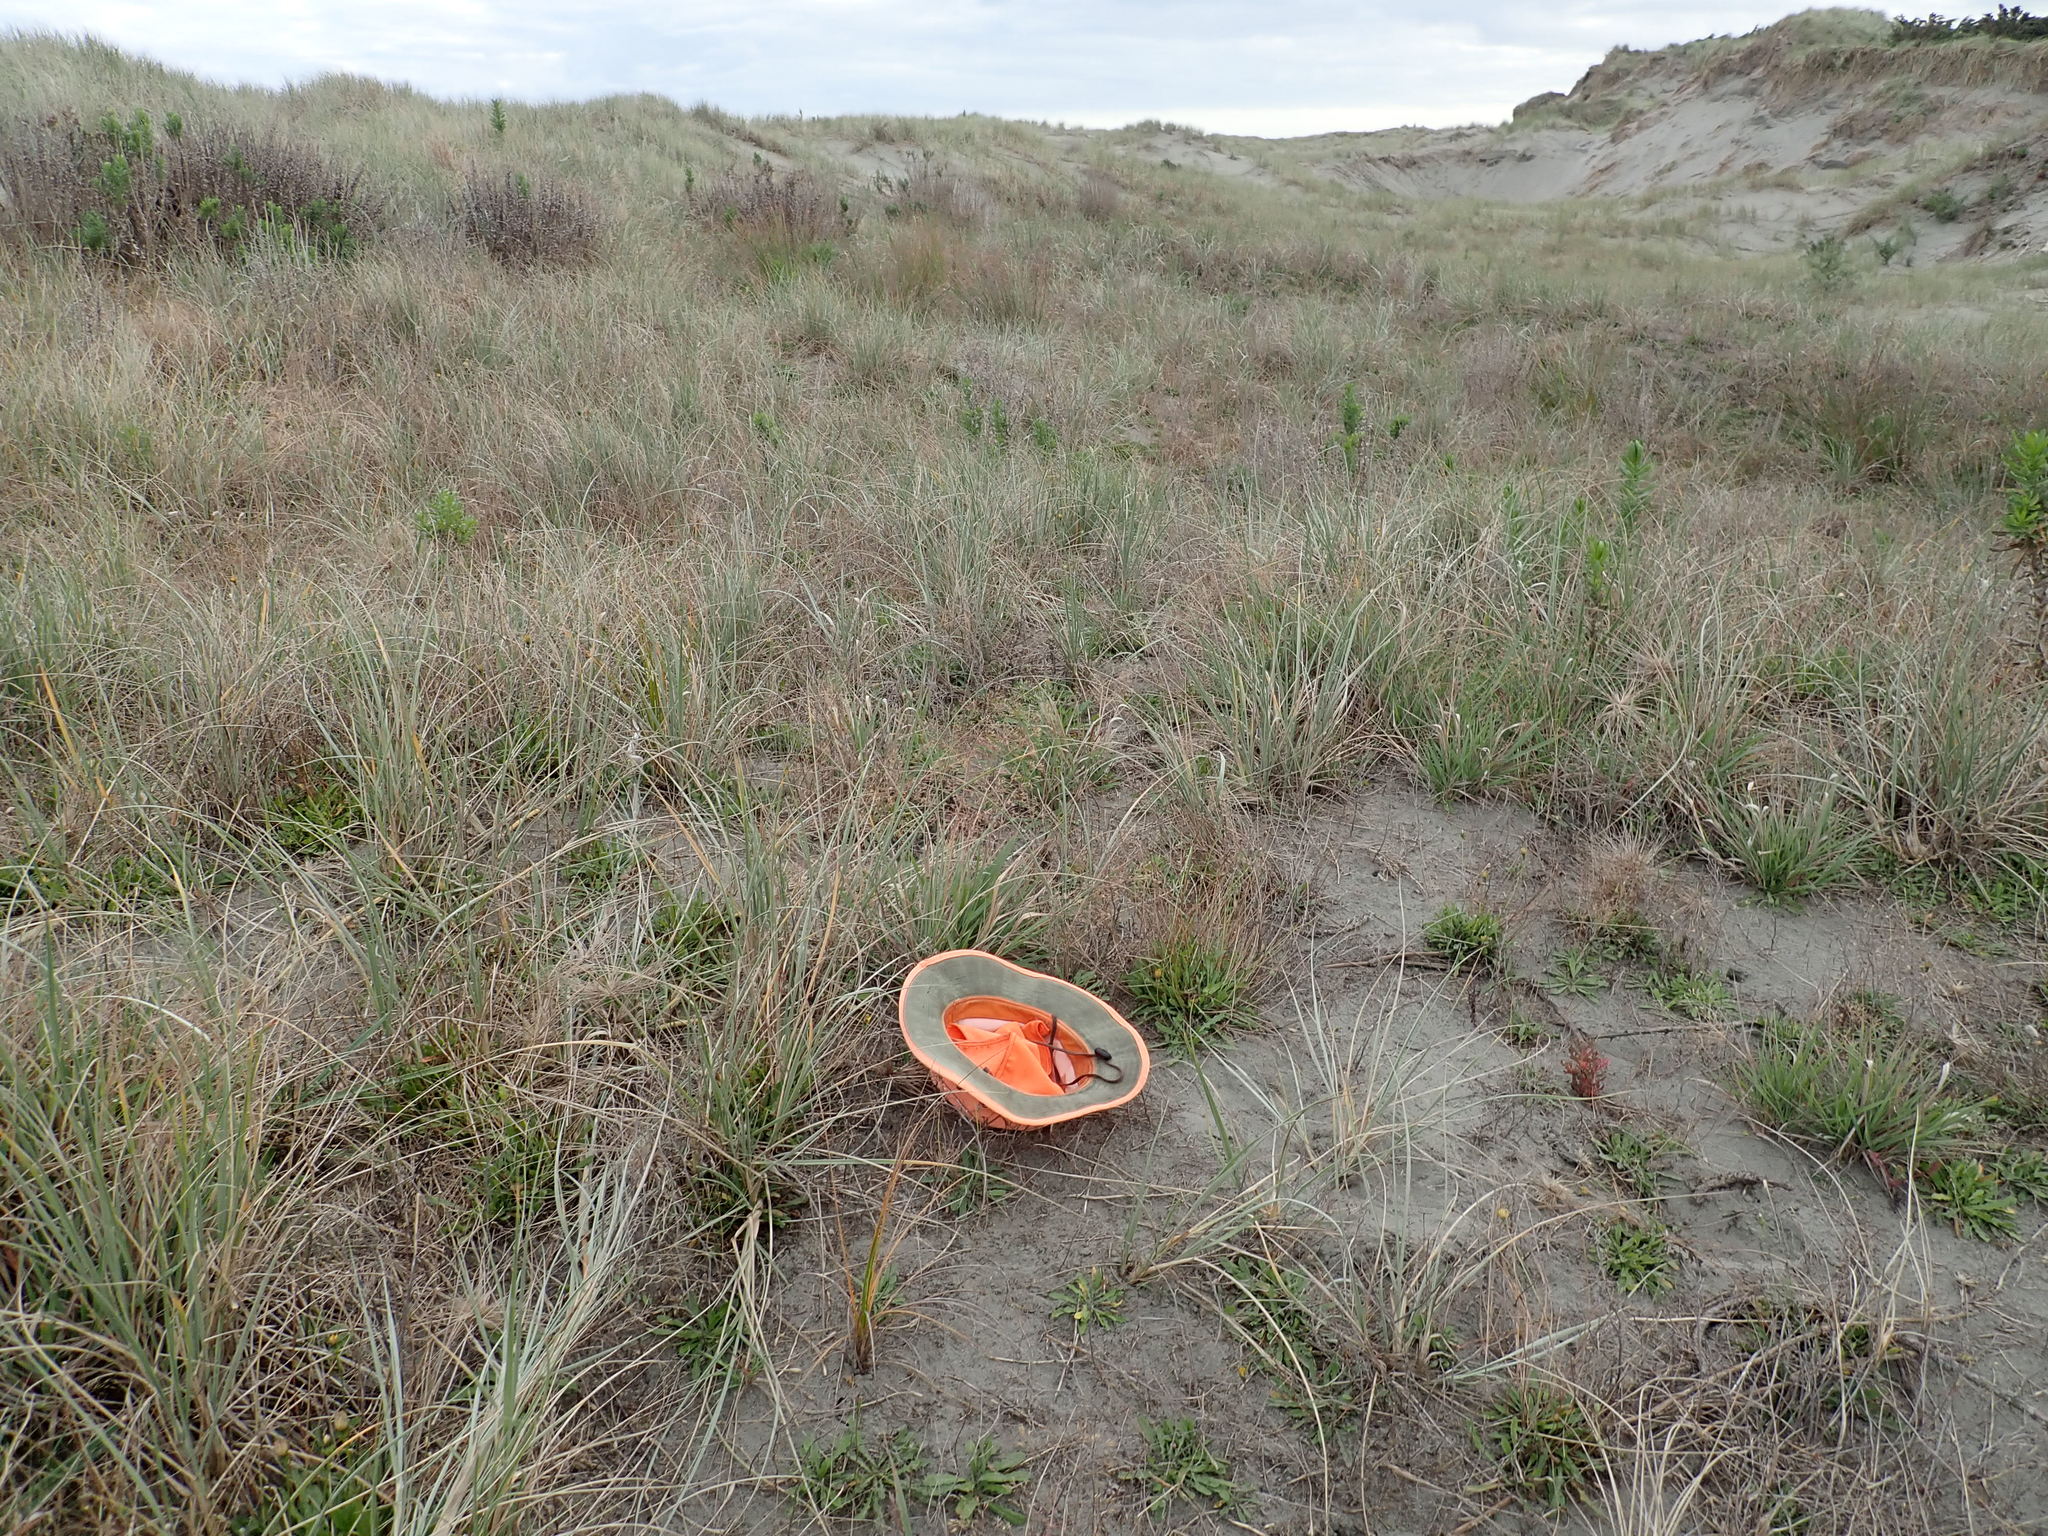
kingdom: Plantae
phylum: Tracheophyta
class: Liliopsida
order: Poales
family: Cyperaceae
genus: Ficinia
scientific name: Ficinia spiralis
